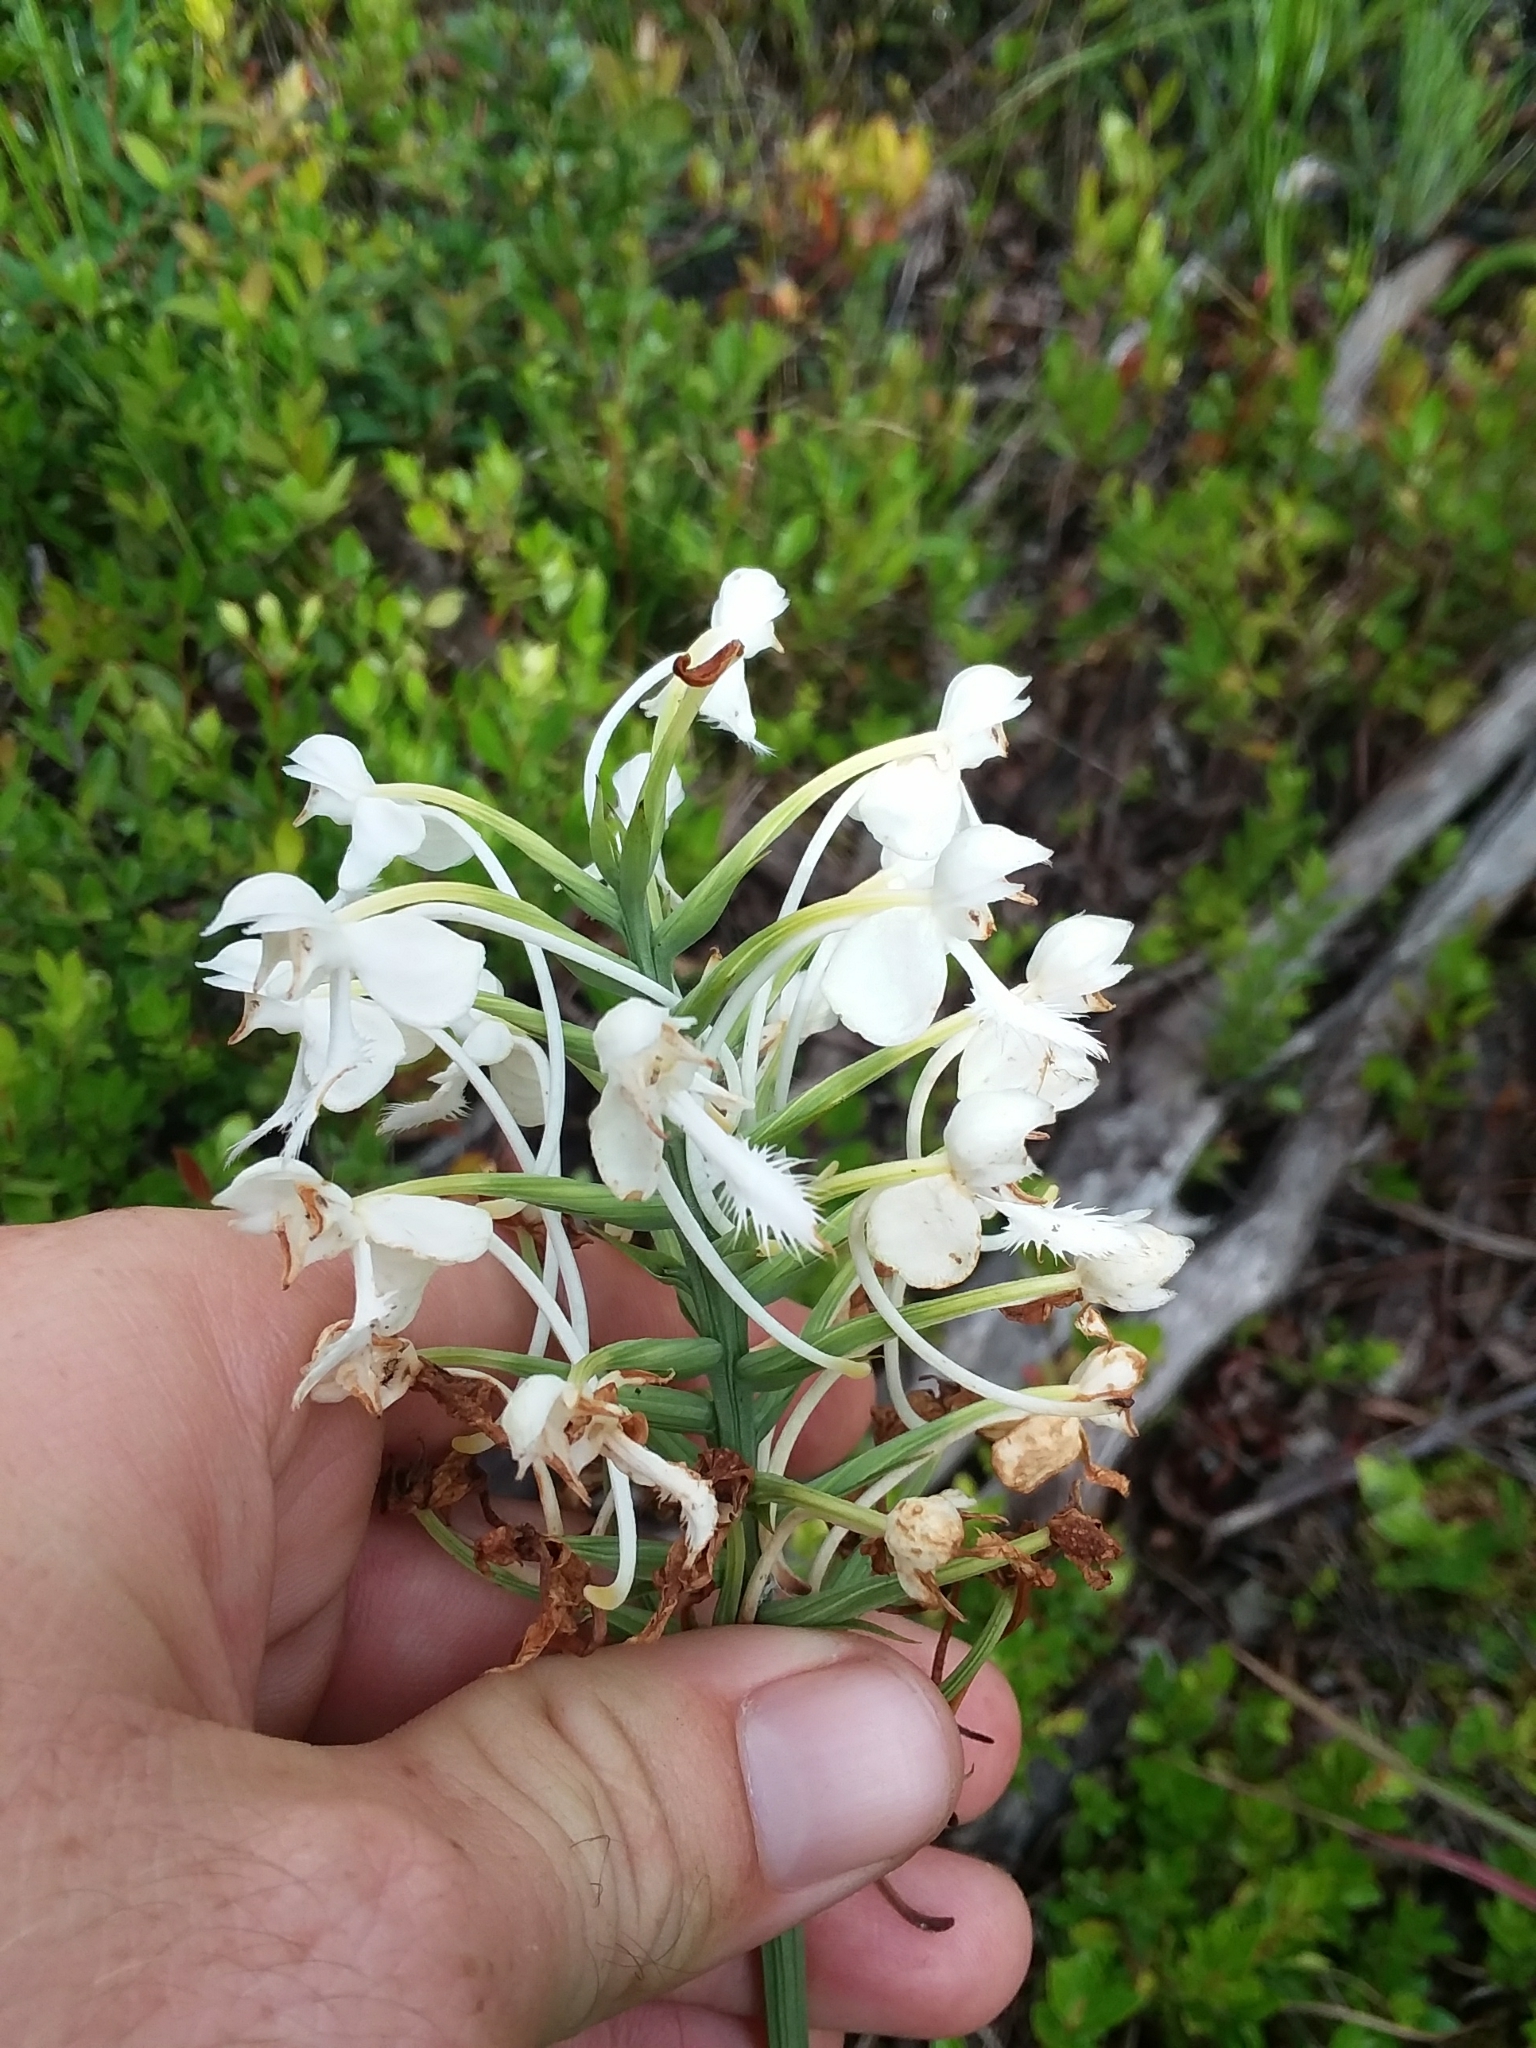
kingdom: Plantae
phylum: Tracheophyta
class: Liliopsida
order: Asparagales
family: Orchidaceae
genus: Platanthera
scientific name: Platanthera blephariglottis
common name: White fringed orchid
